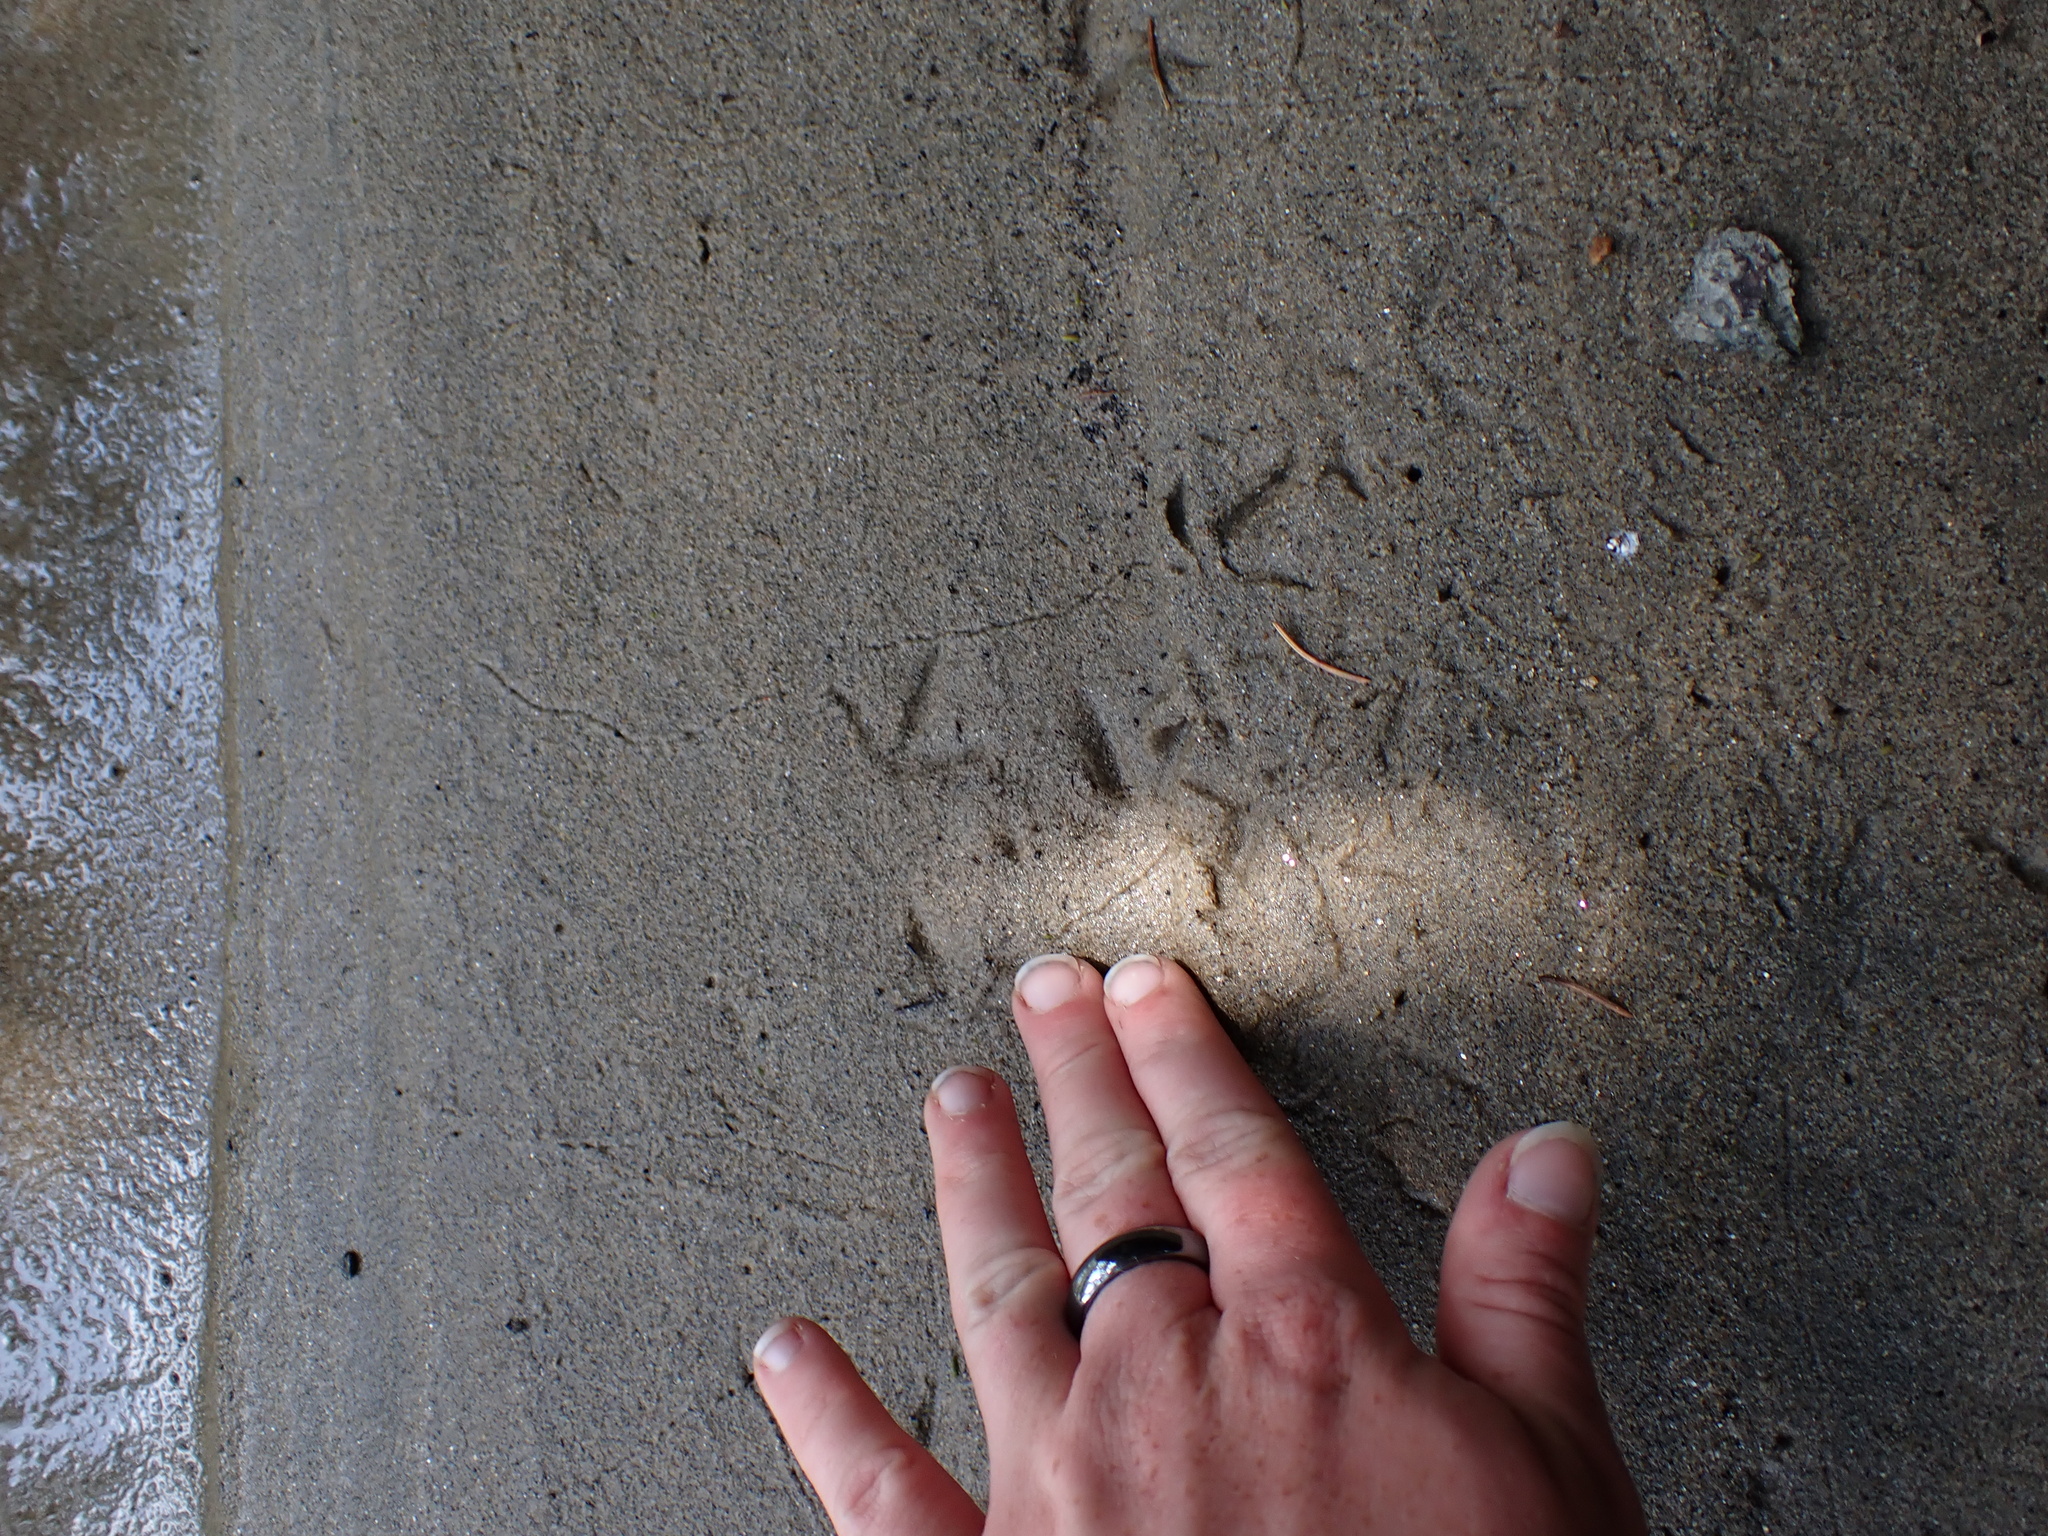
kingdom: Animalia
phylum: Chordata
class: Aves
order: Charadriiformes
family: Scolopacidae
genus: Actitis
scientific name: Actitis macularius
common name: Spotted sandpiper
